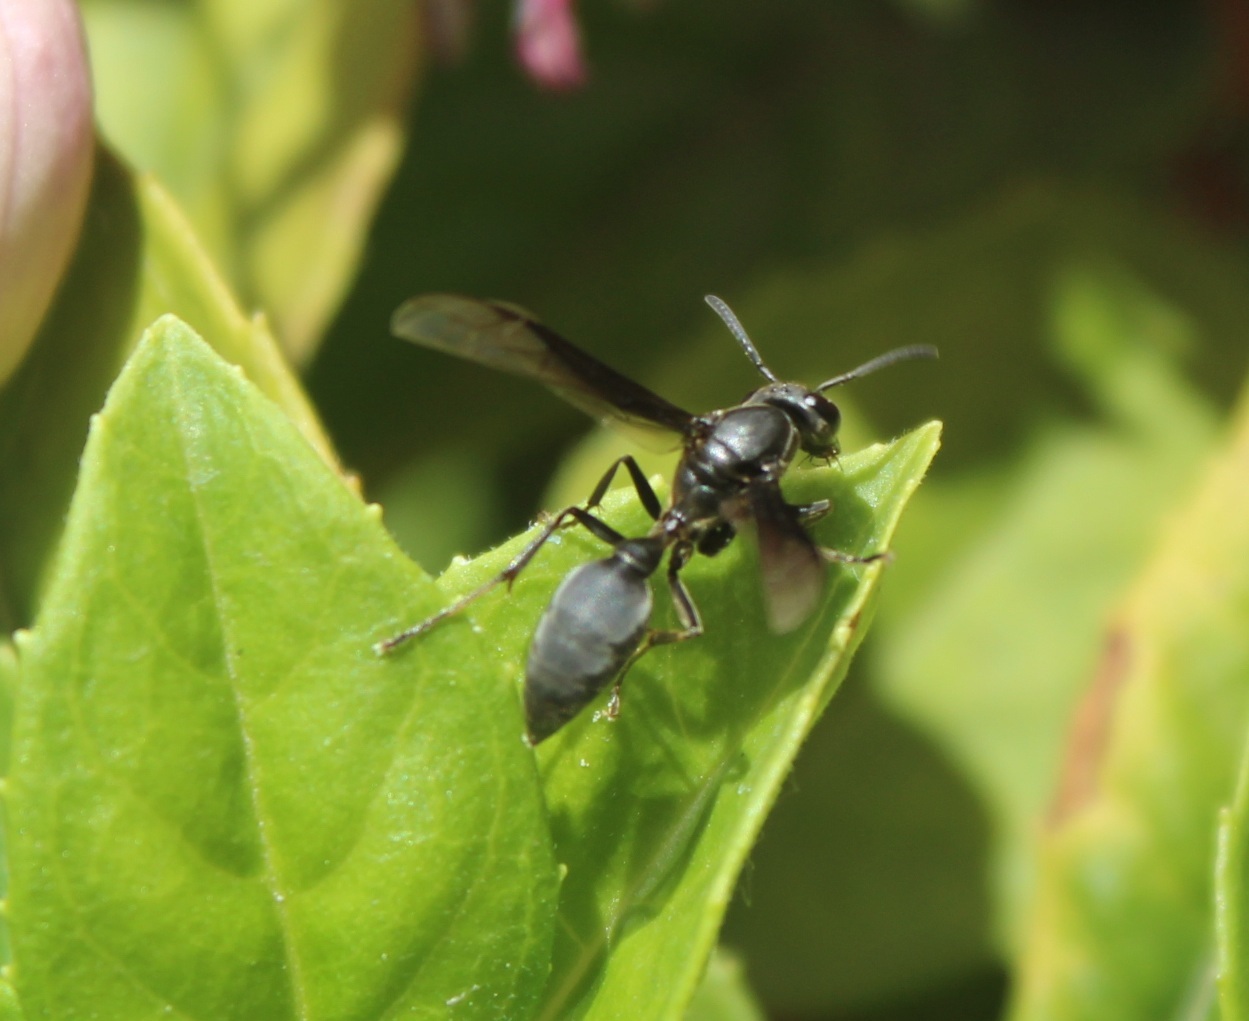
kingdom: Animalia
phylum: Arthropoda
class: Insecta
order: Hymenoptera
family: Eumenidae
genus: Polybia
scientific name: Polybia ignobilis
